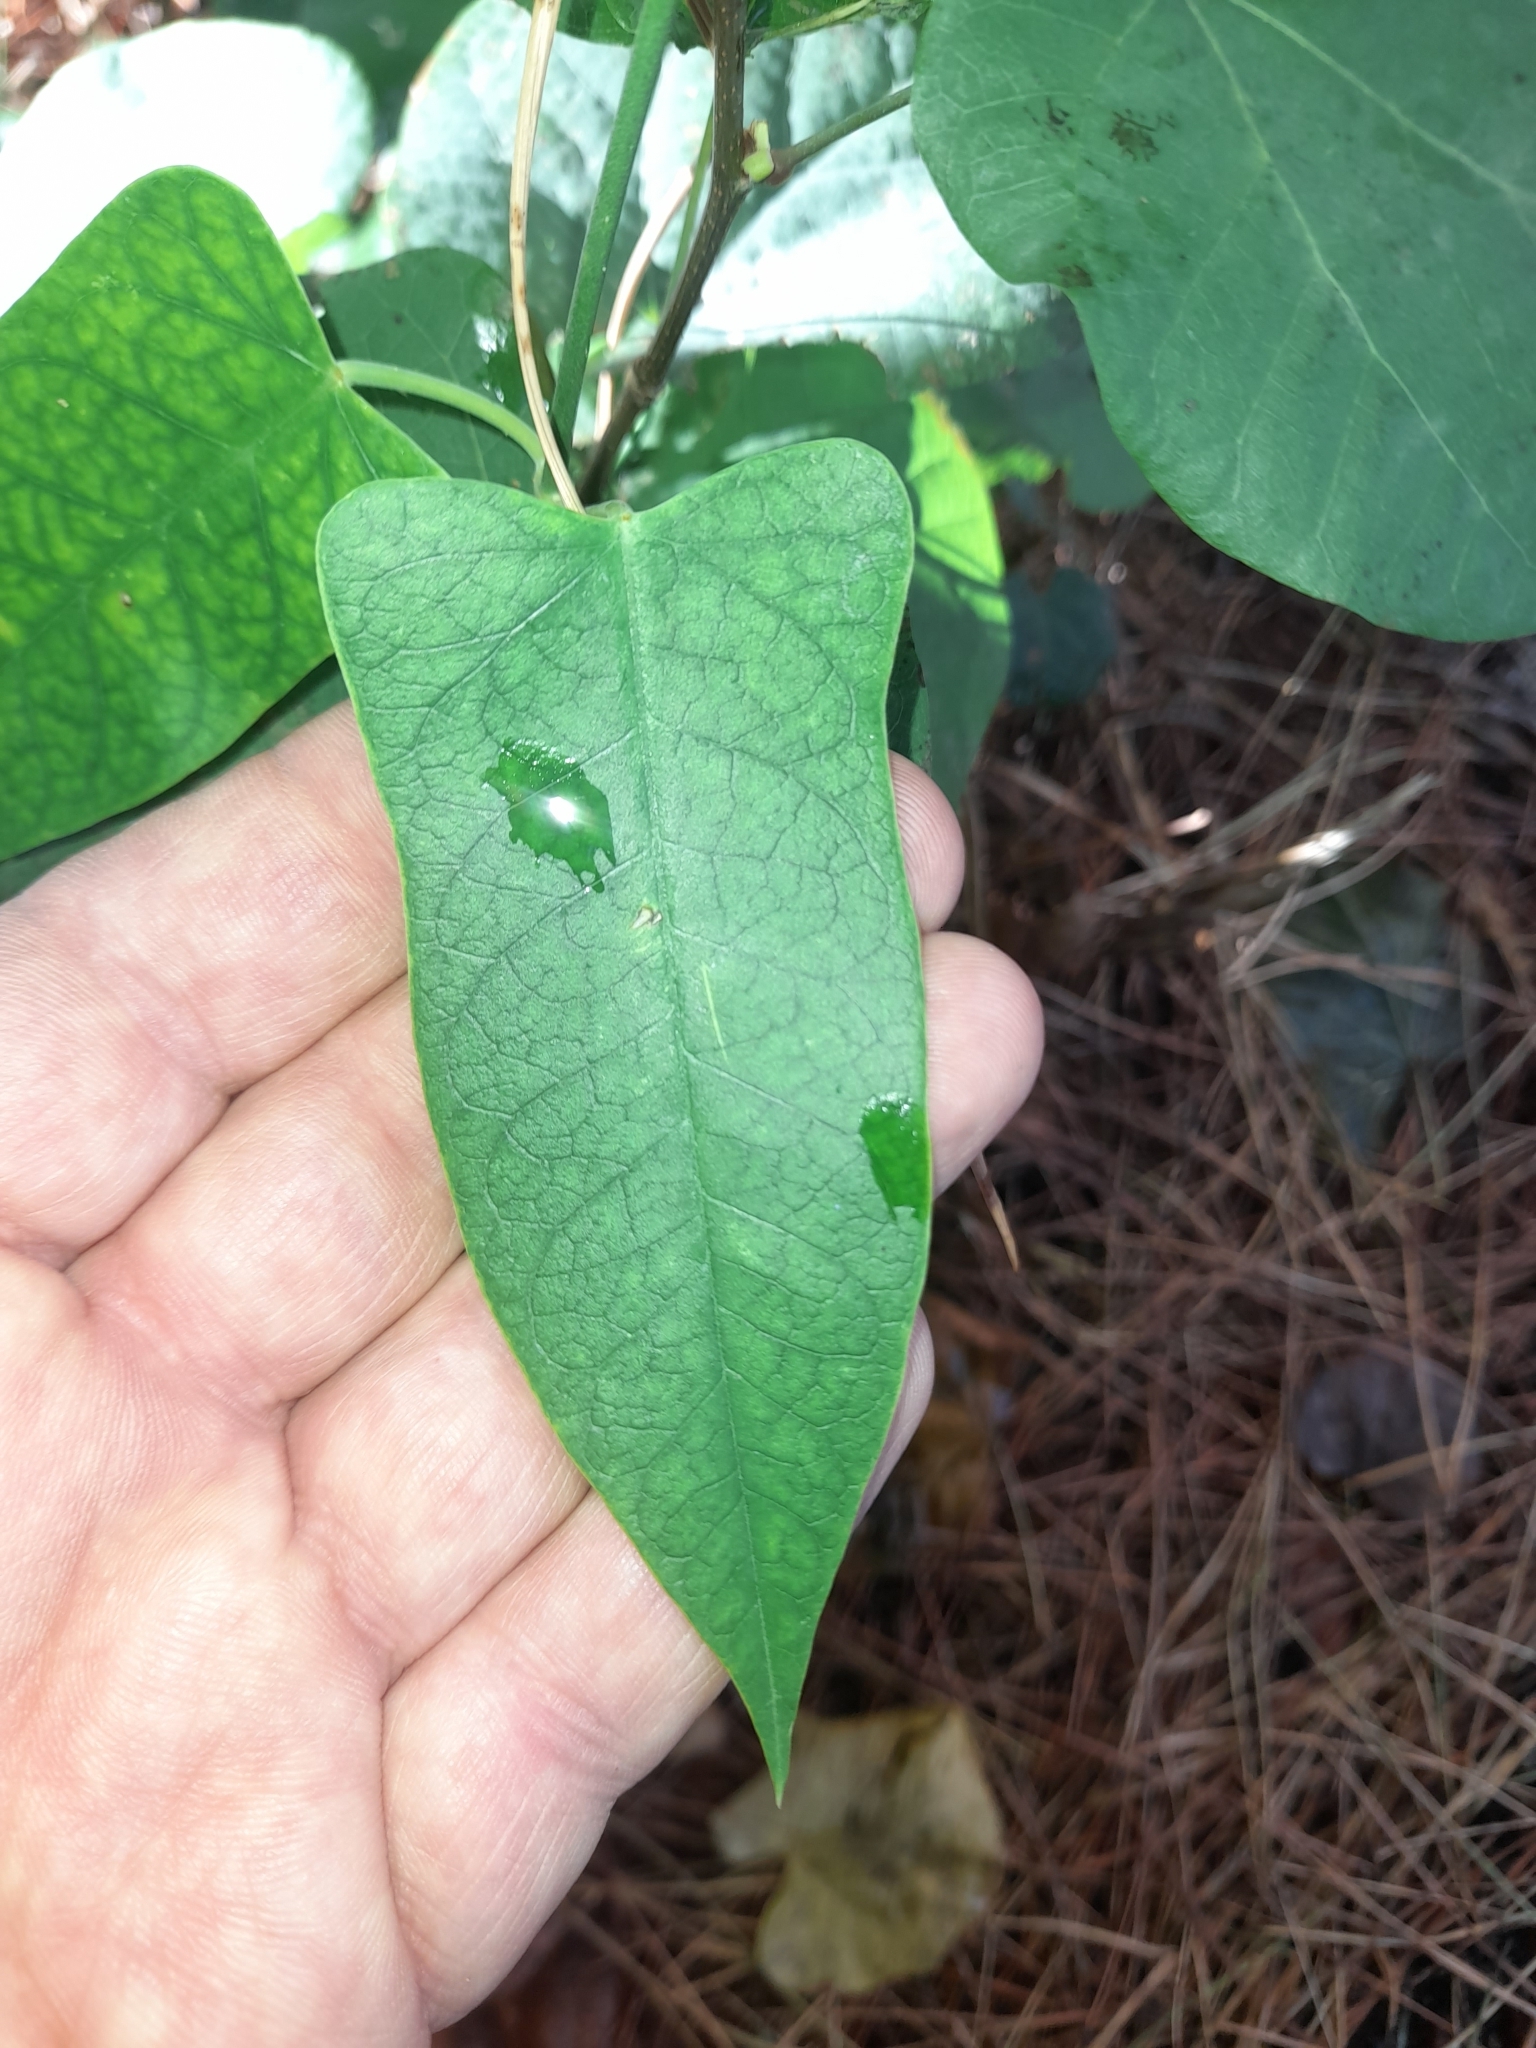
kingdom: Plantae
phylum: Tracheophyta
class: Magnoliopsida
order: Gentianales
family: Apocynaceae
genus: Araujia
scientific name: Araujia sericifera
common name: White bladderflower
